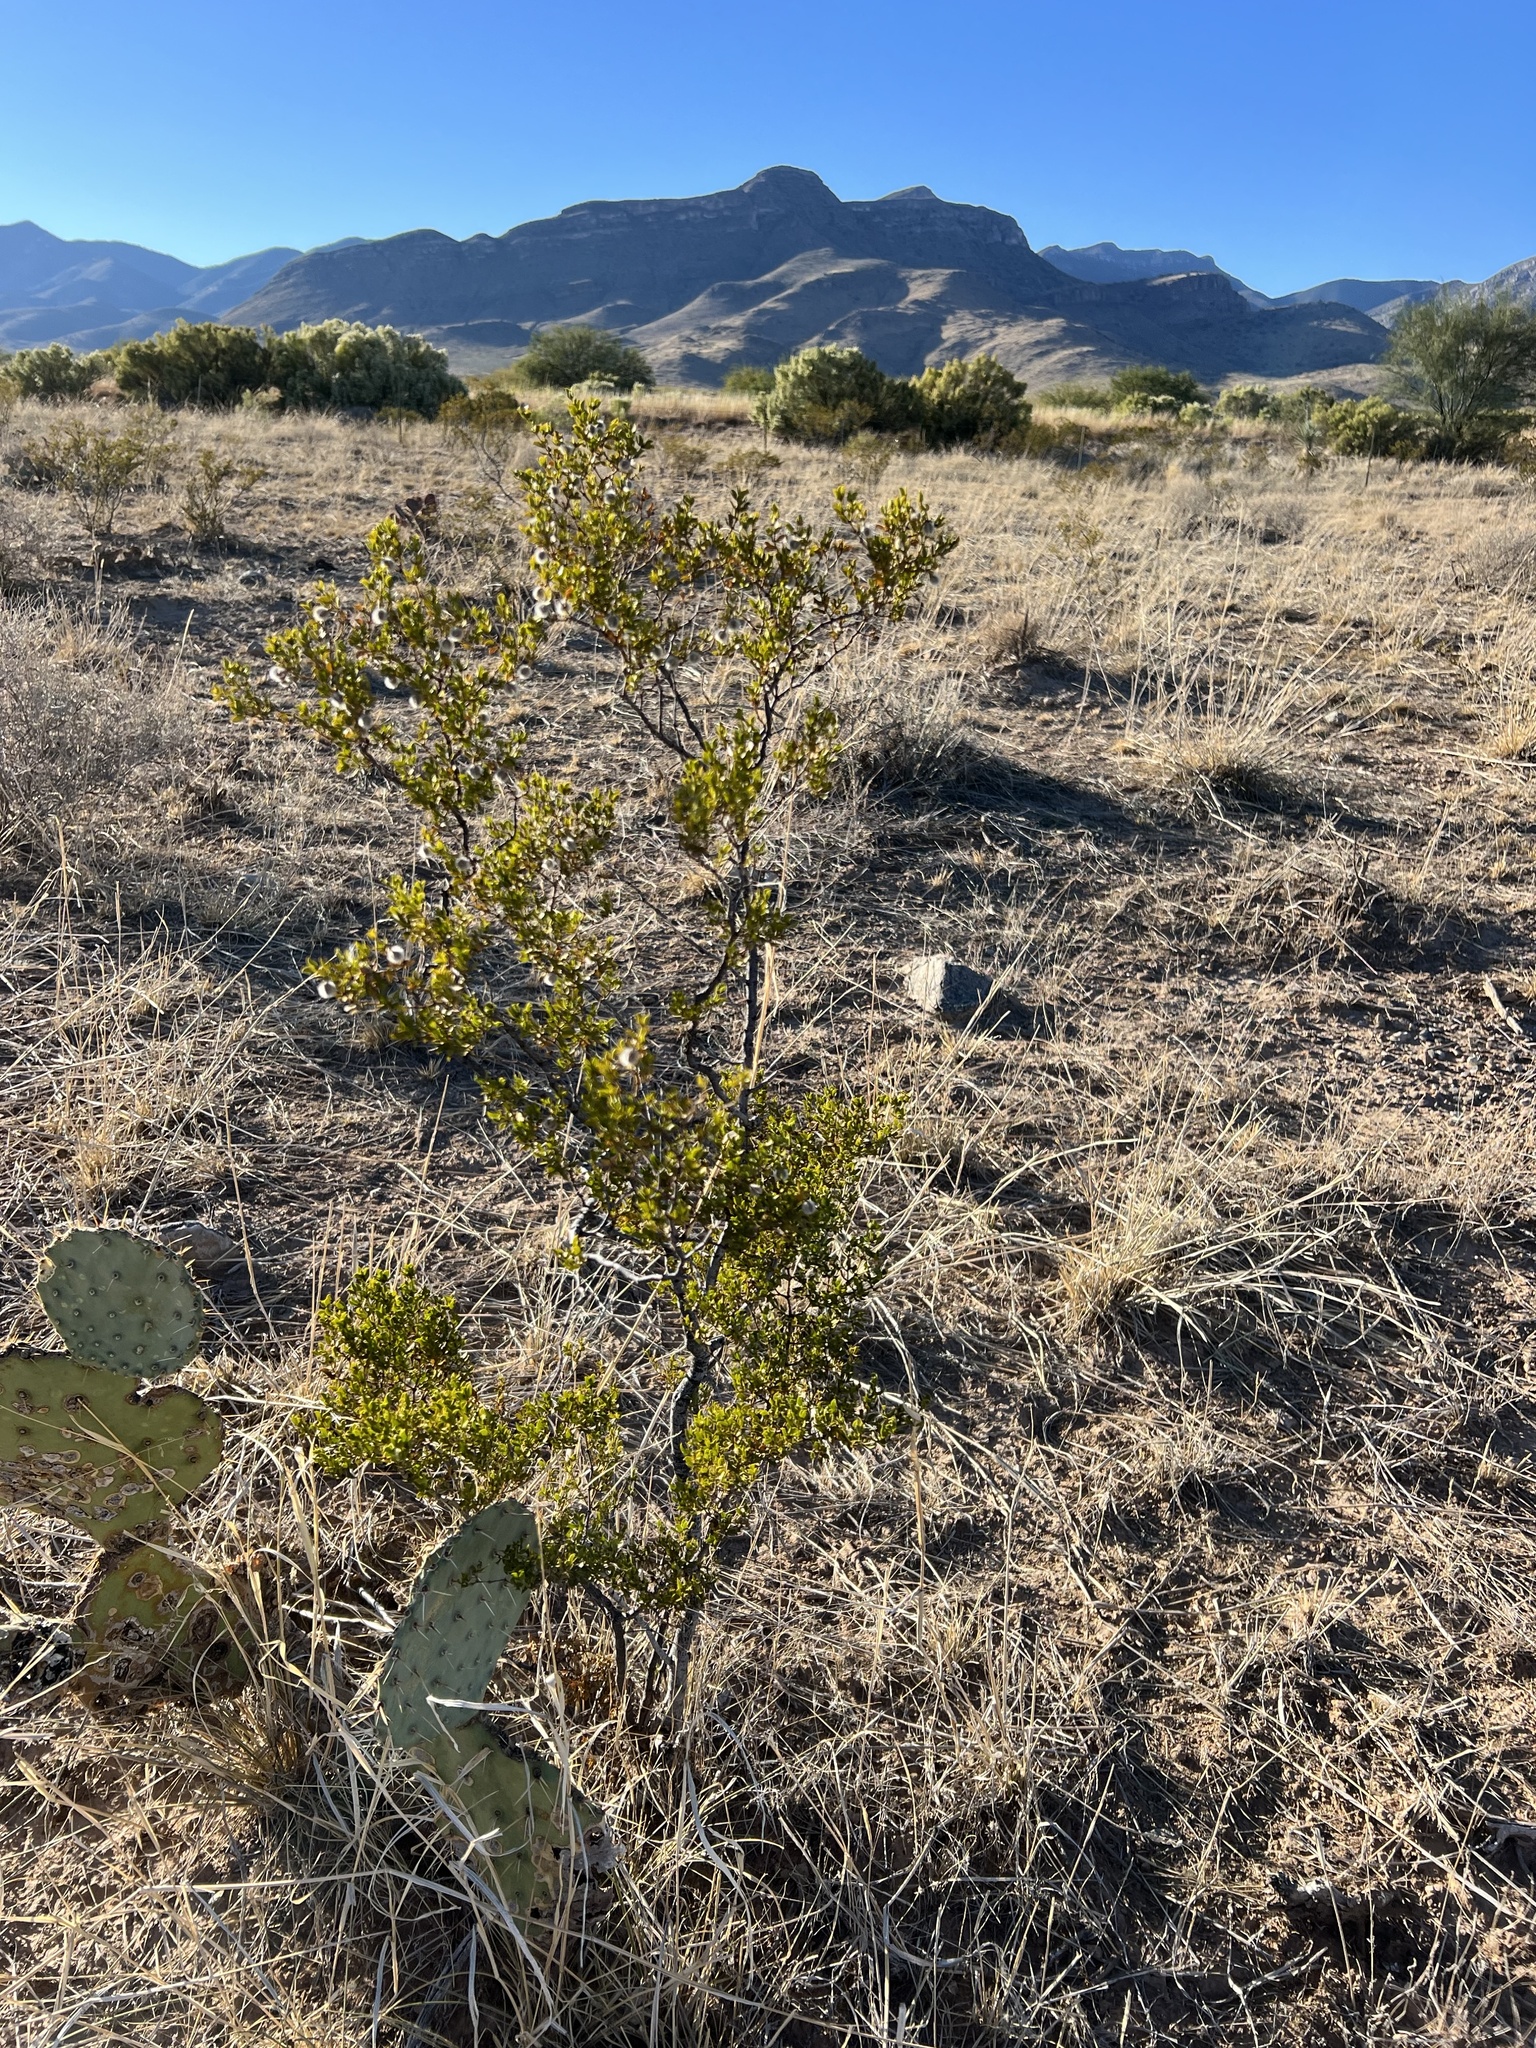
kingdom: Plantae
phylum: Tracheophyta
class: Magnoliopsida
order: Zygophyllales
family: Zygophyllaceae
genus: Larrea
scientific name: Larrea tridentata
